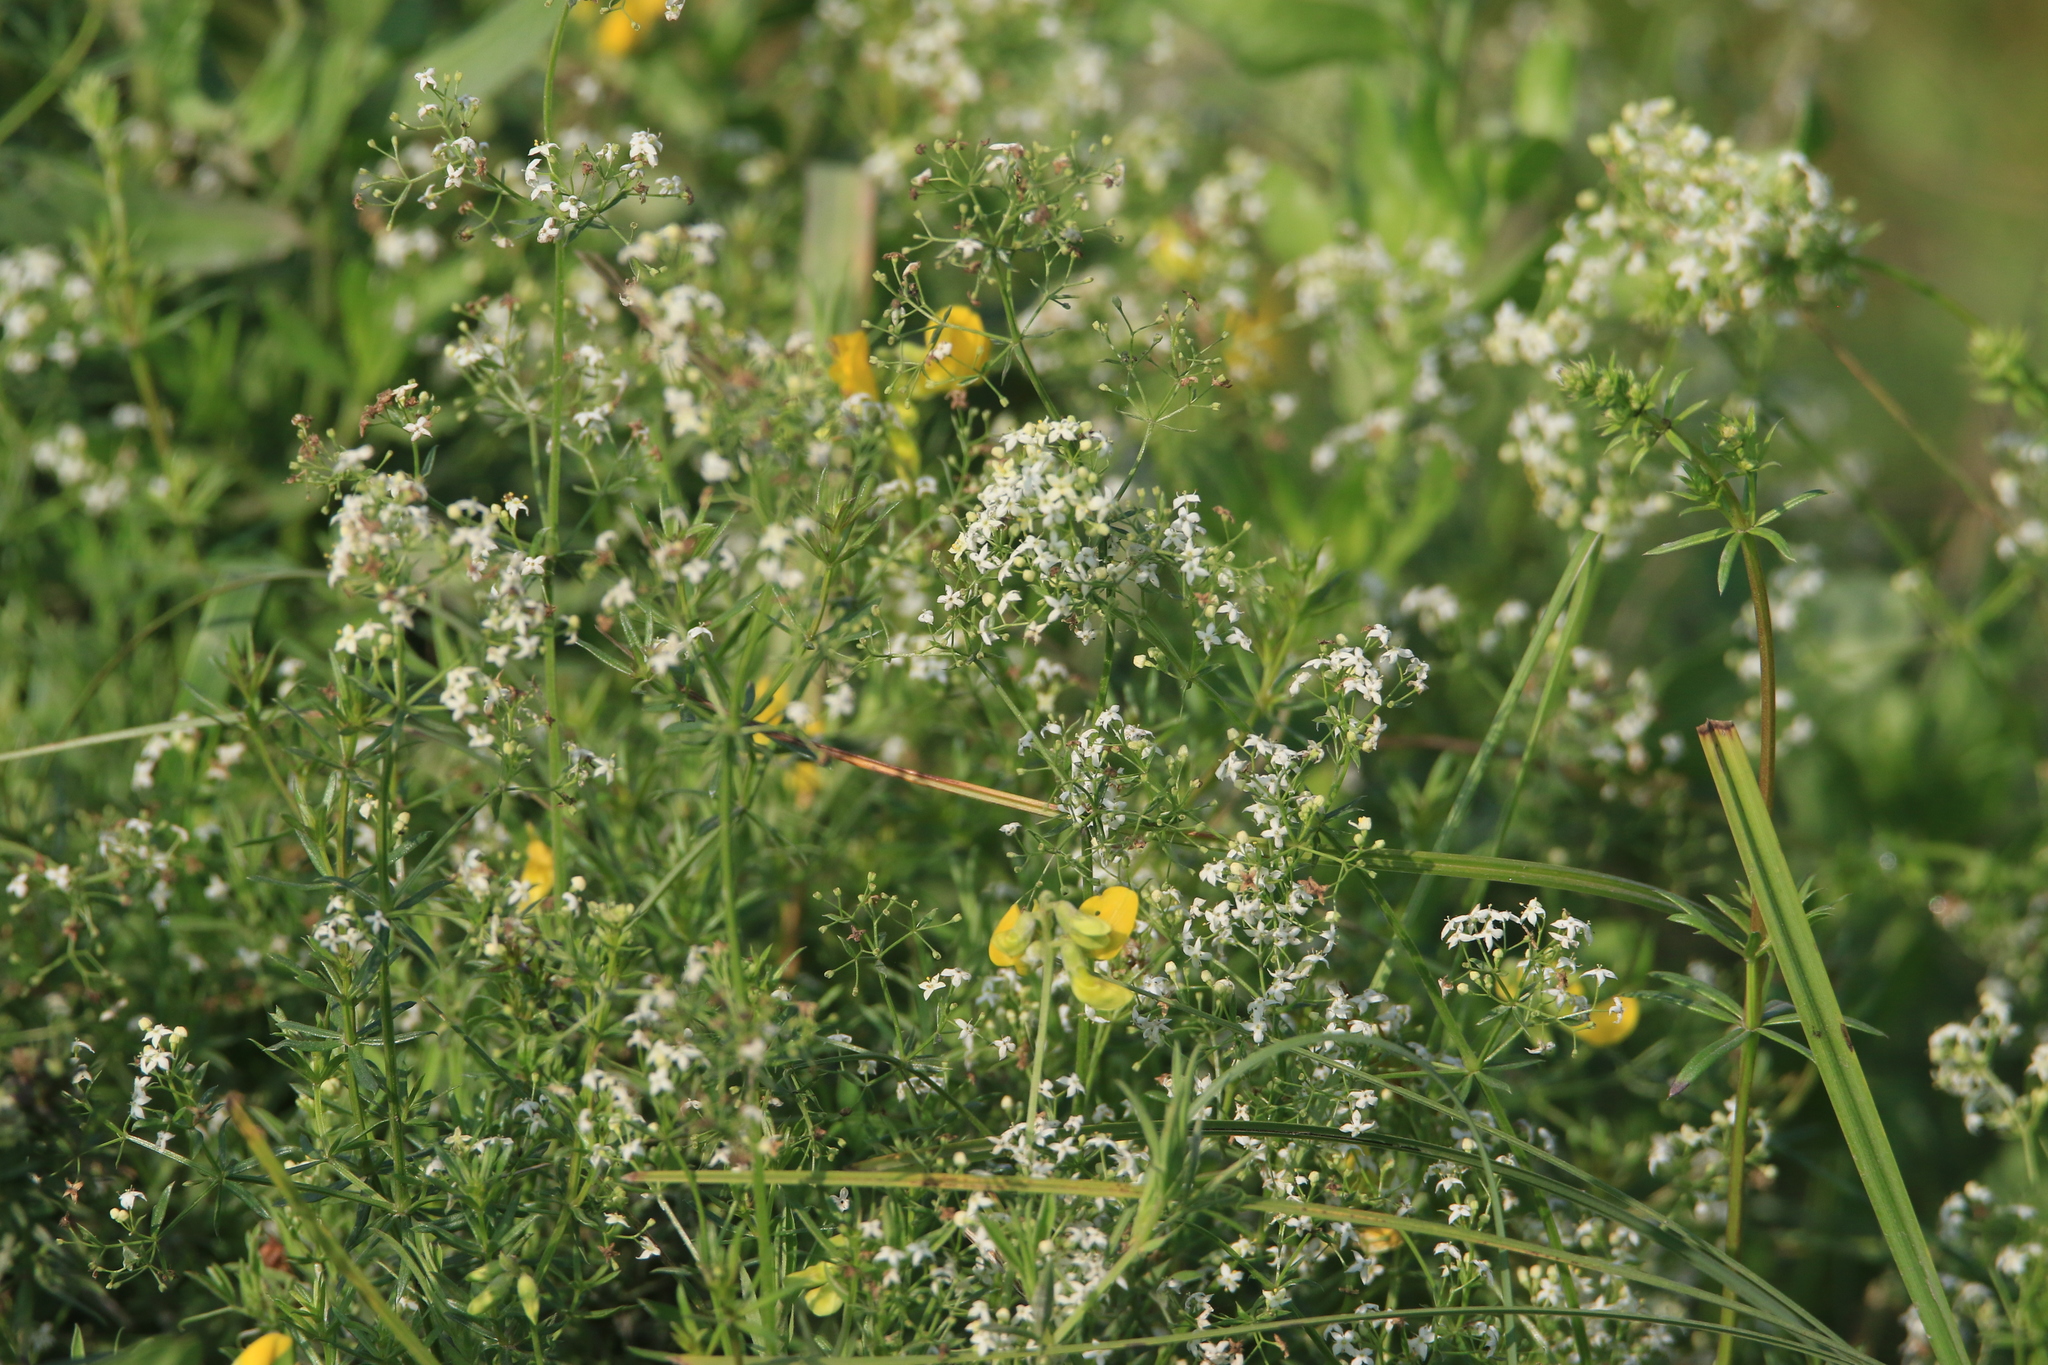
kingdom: Plantae
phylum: Tracheophyta
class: Magnoliopsida
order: Gentianales
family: Rubiaceae
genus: Galium
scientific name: Galium mollugo
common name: Hedge bedstraw
